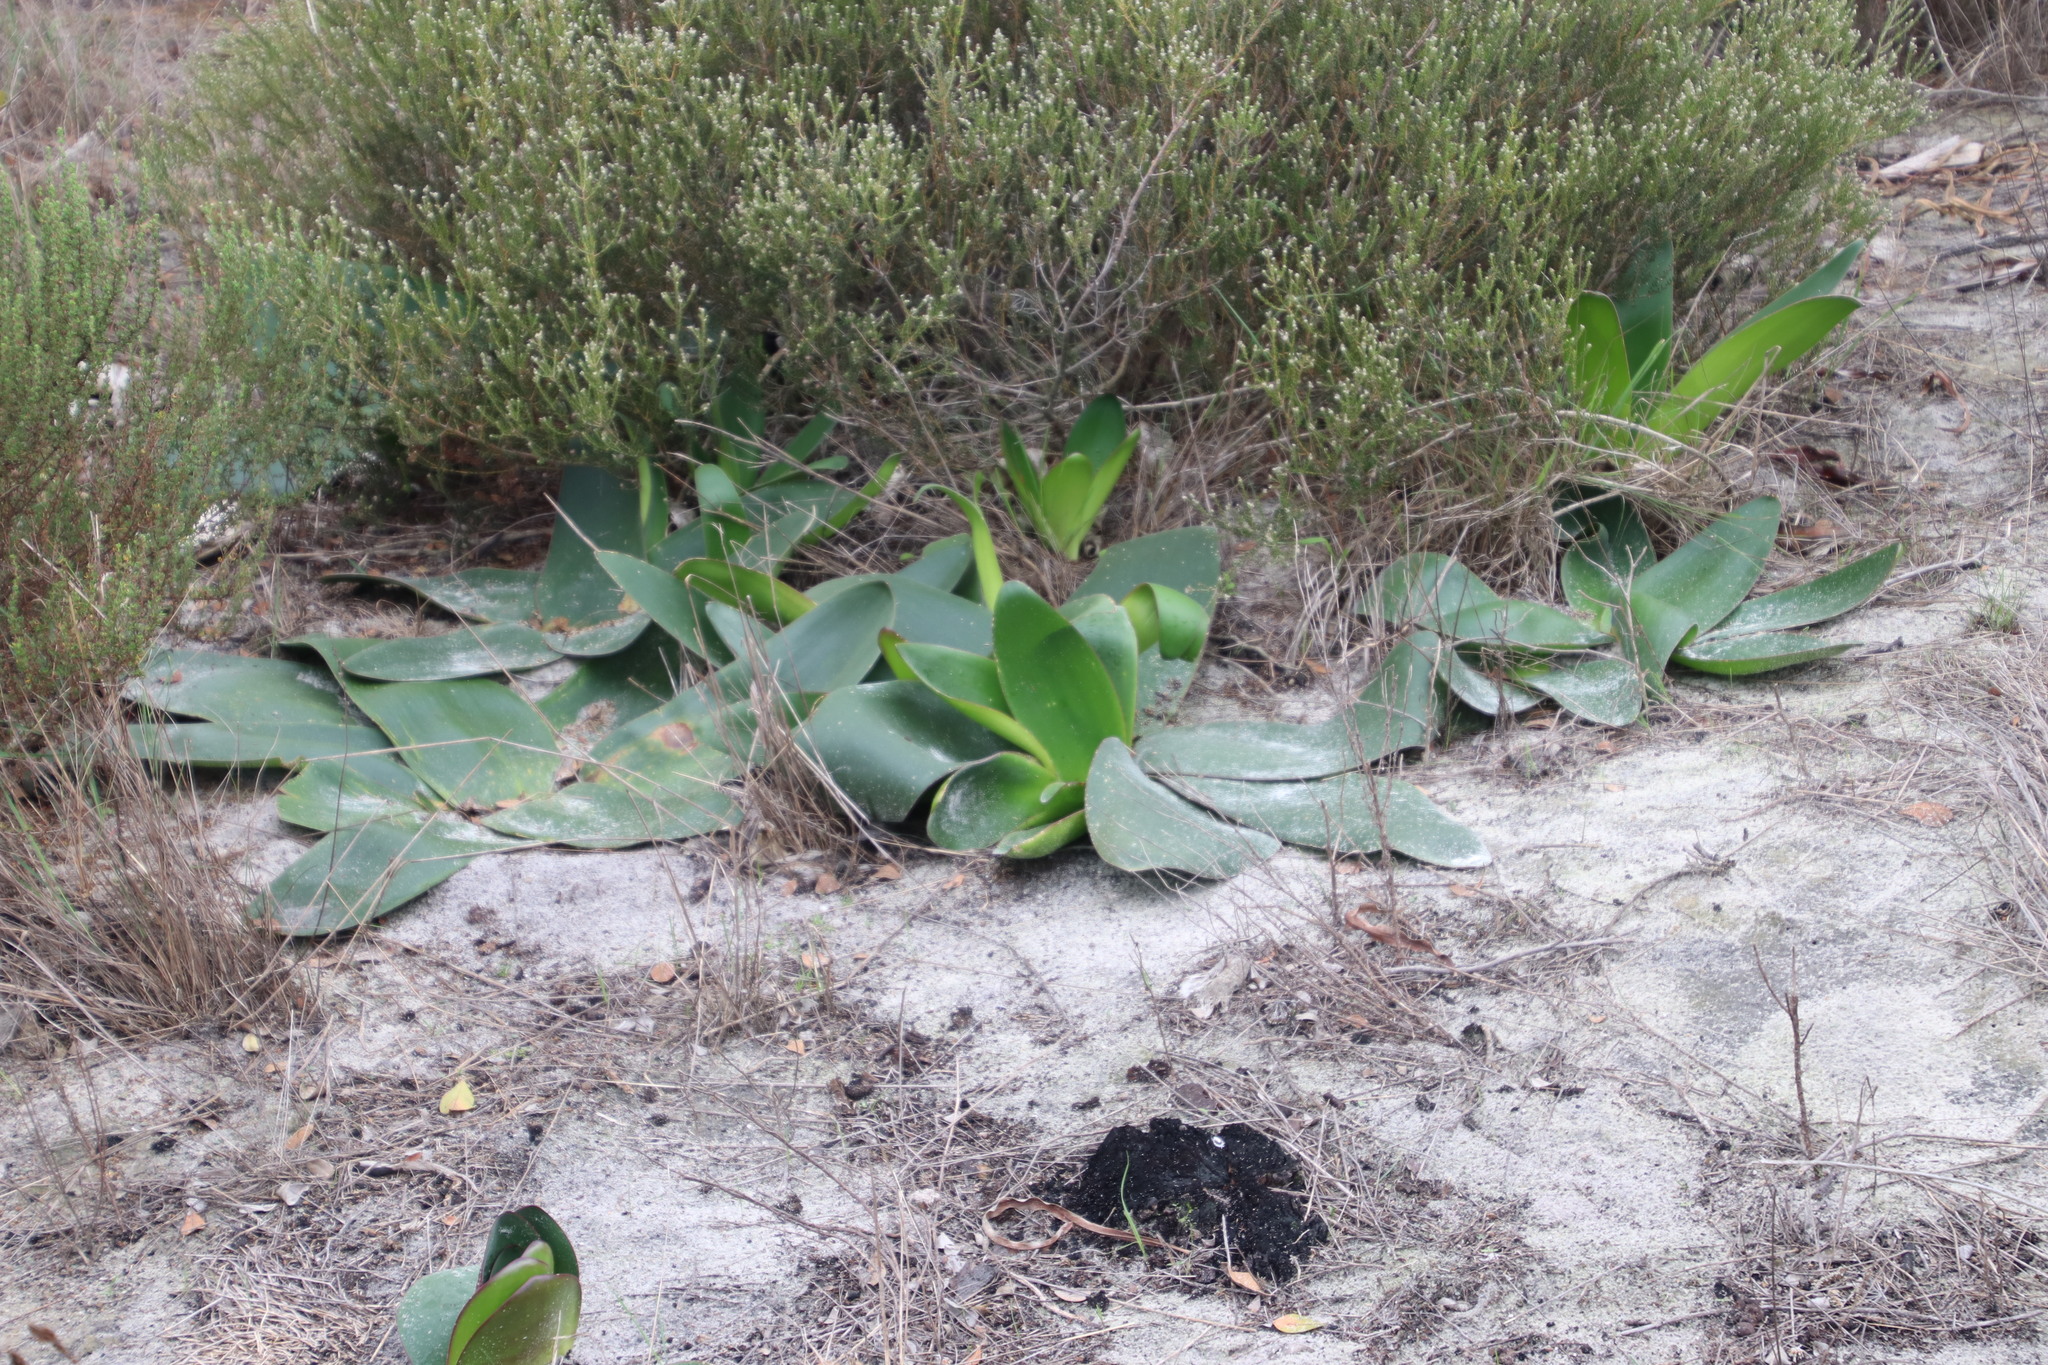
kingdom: Plantae
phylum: Tracheophyta
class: Liliopsida
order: Asparagales
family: Amaryllidaceae
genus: Brunsvigia
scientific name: Brunsvigia orientalis
